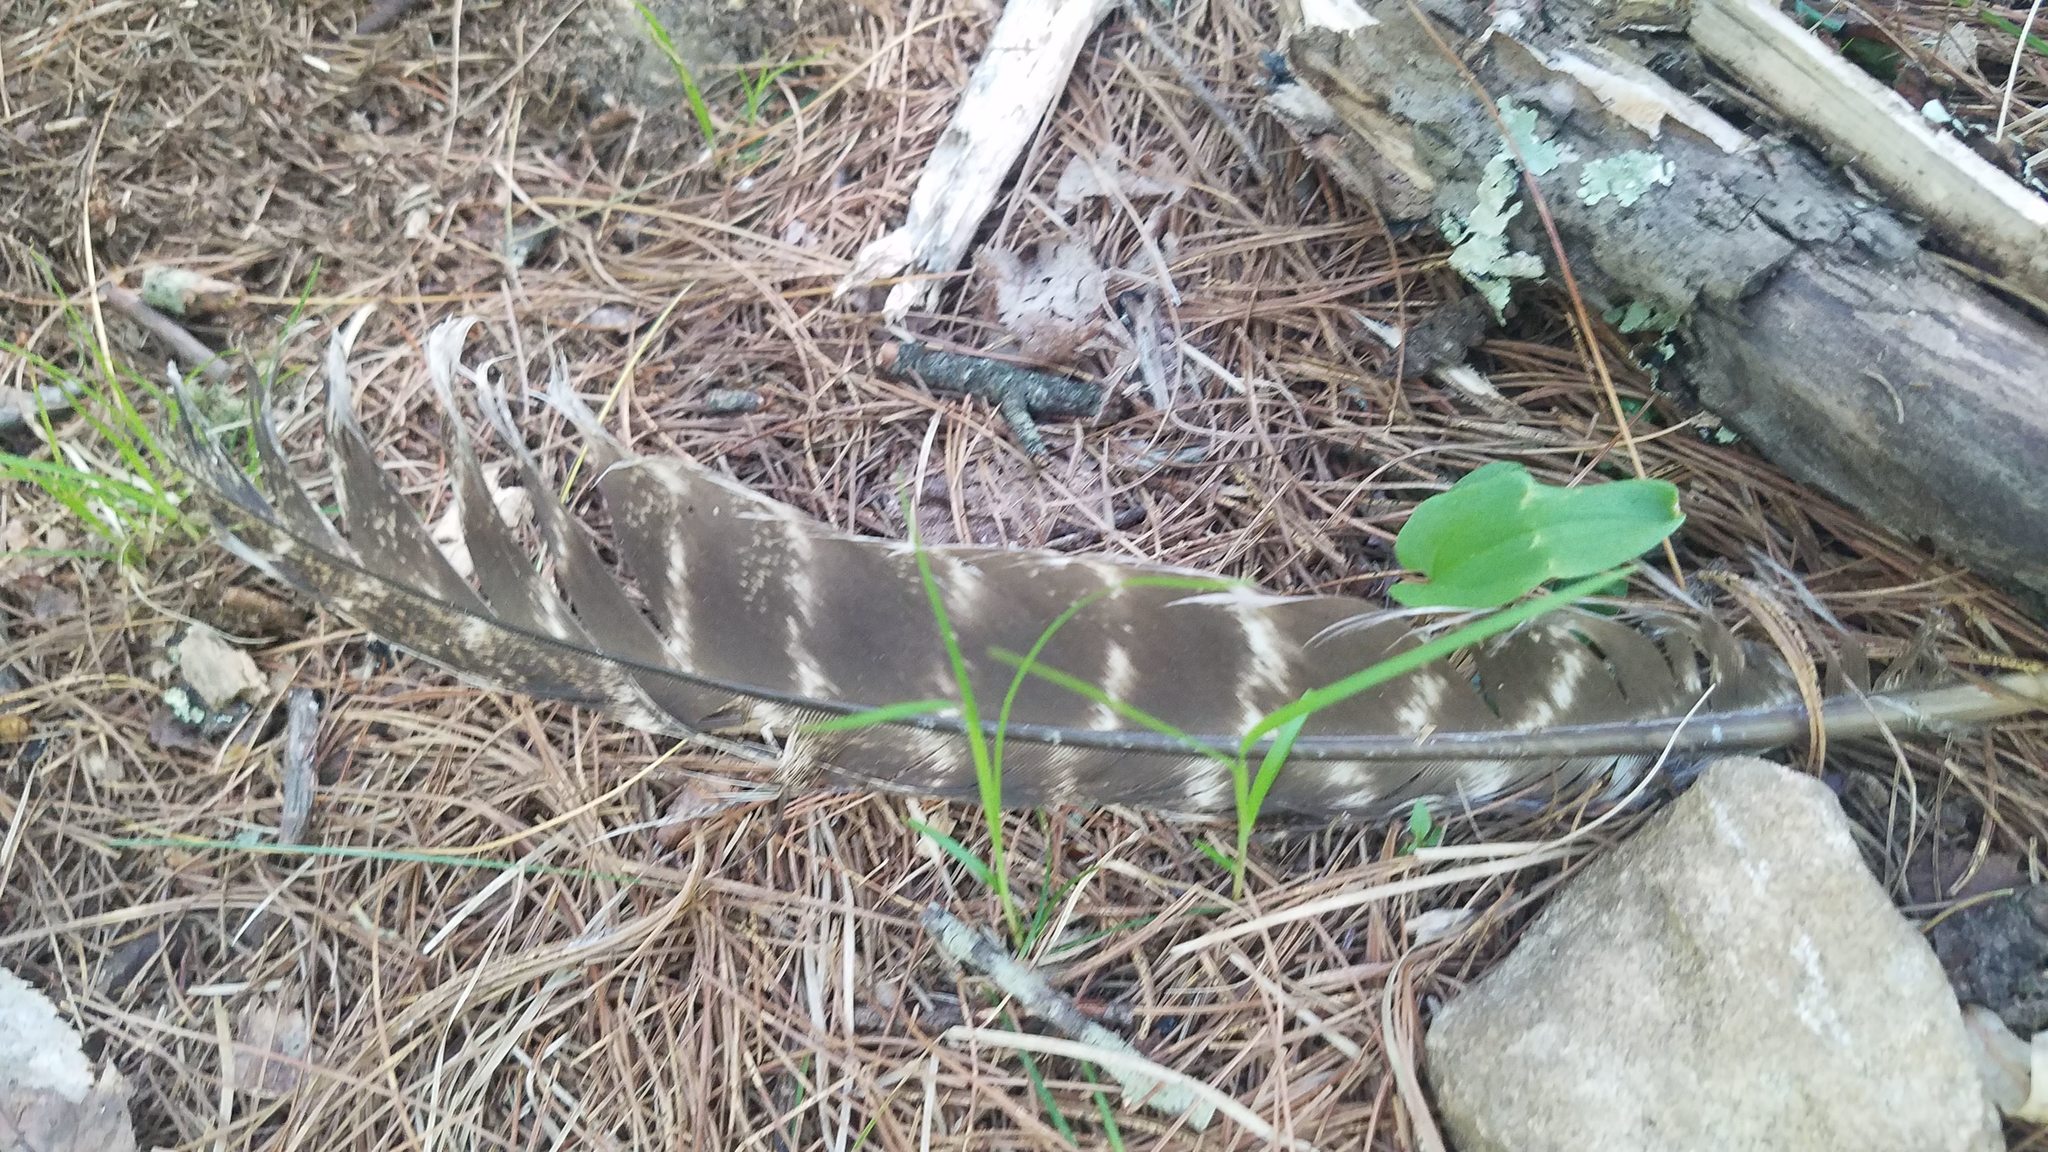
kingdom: Animalia
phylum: Chordata
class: Aves
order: Galliformes
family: Phasianidae
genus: Meleagris
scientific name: Meleagris gallopavo
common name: Wild turkey
